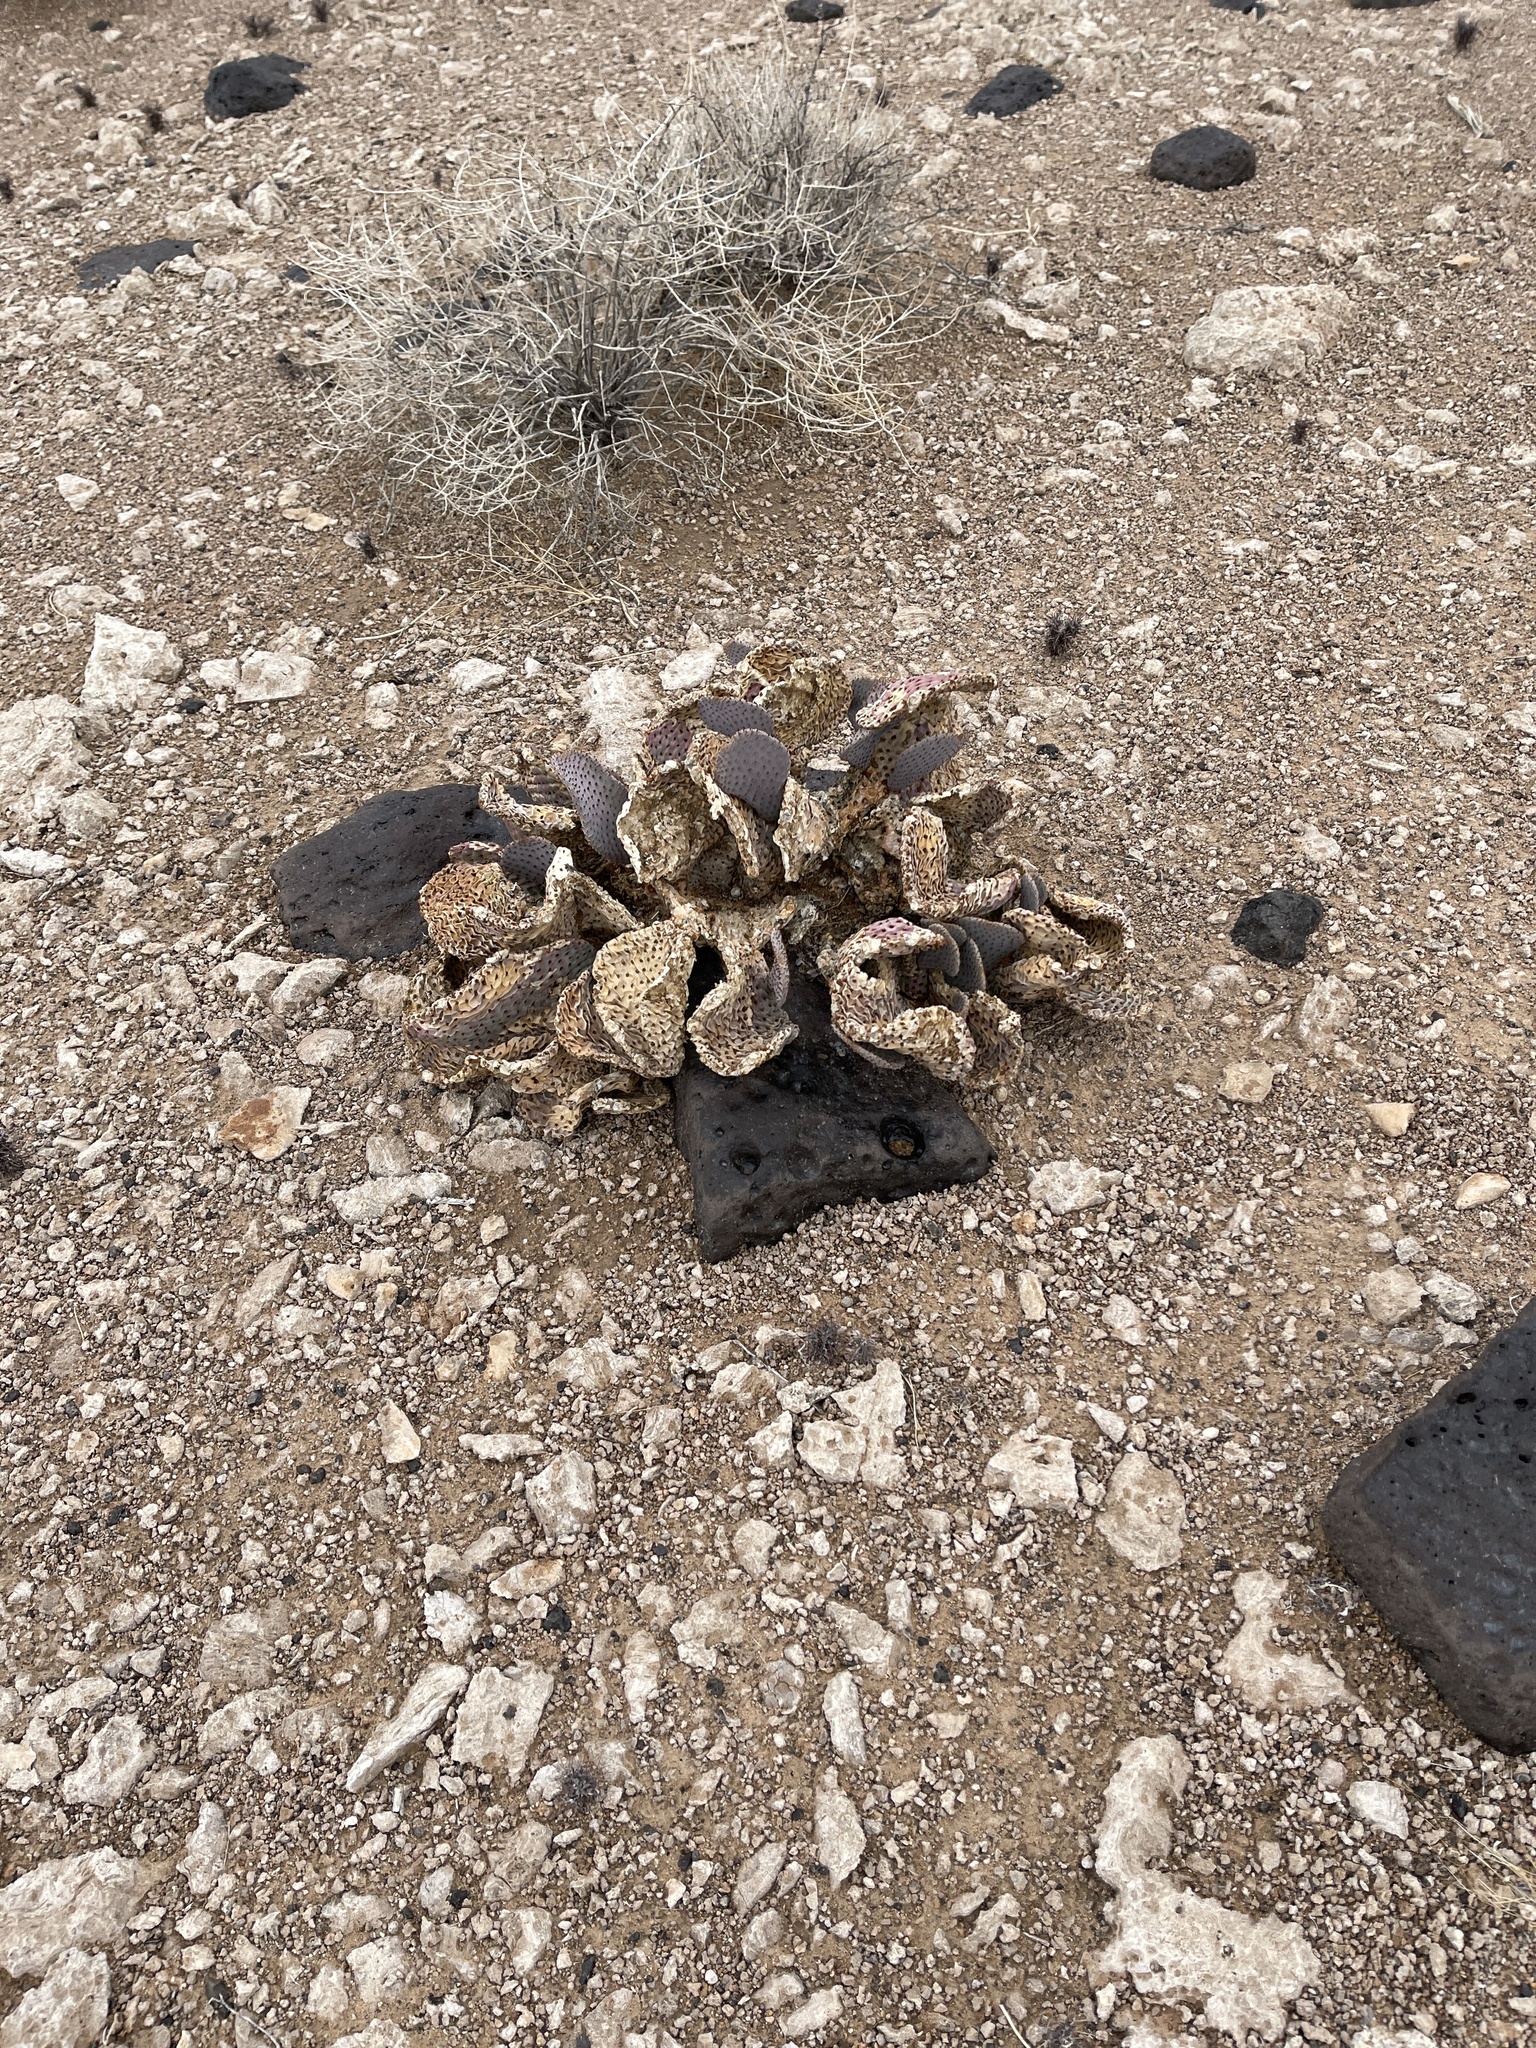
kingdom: Plantae
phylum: Tracheophyta
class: Magnoliopsida
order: Caryophyllales
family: Cactaceae
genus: Opuntia
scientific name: Opuntia basilaris
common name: Beavertail prickly-pear
